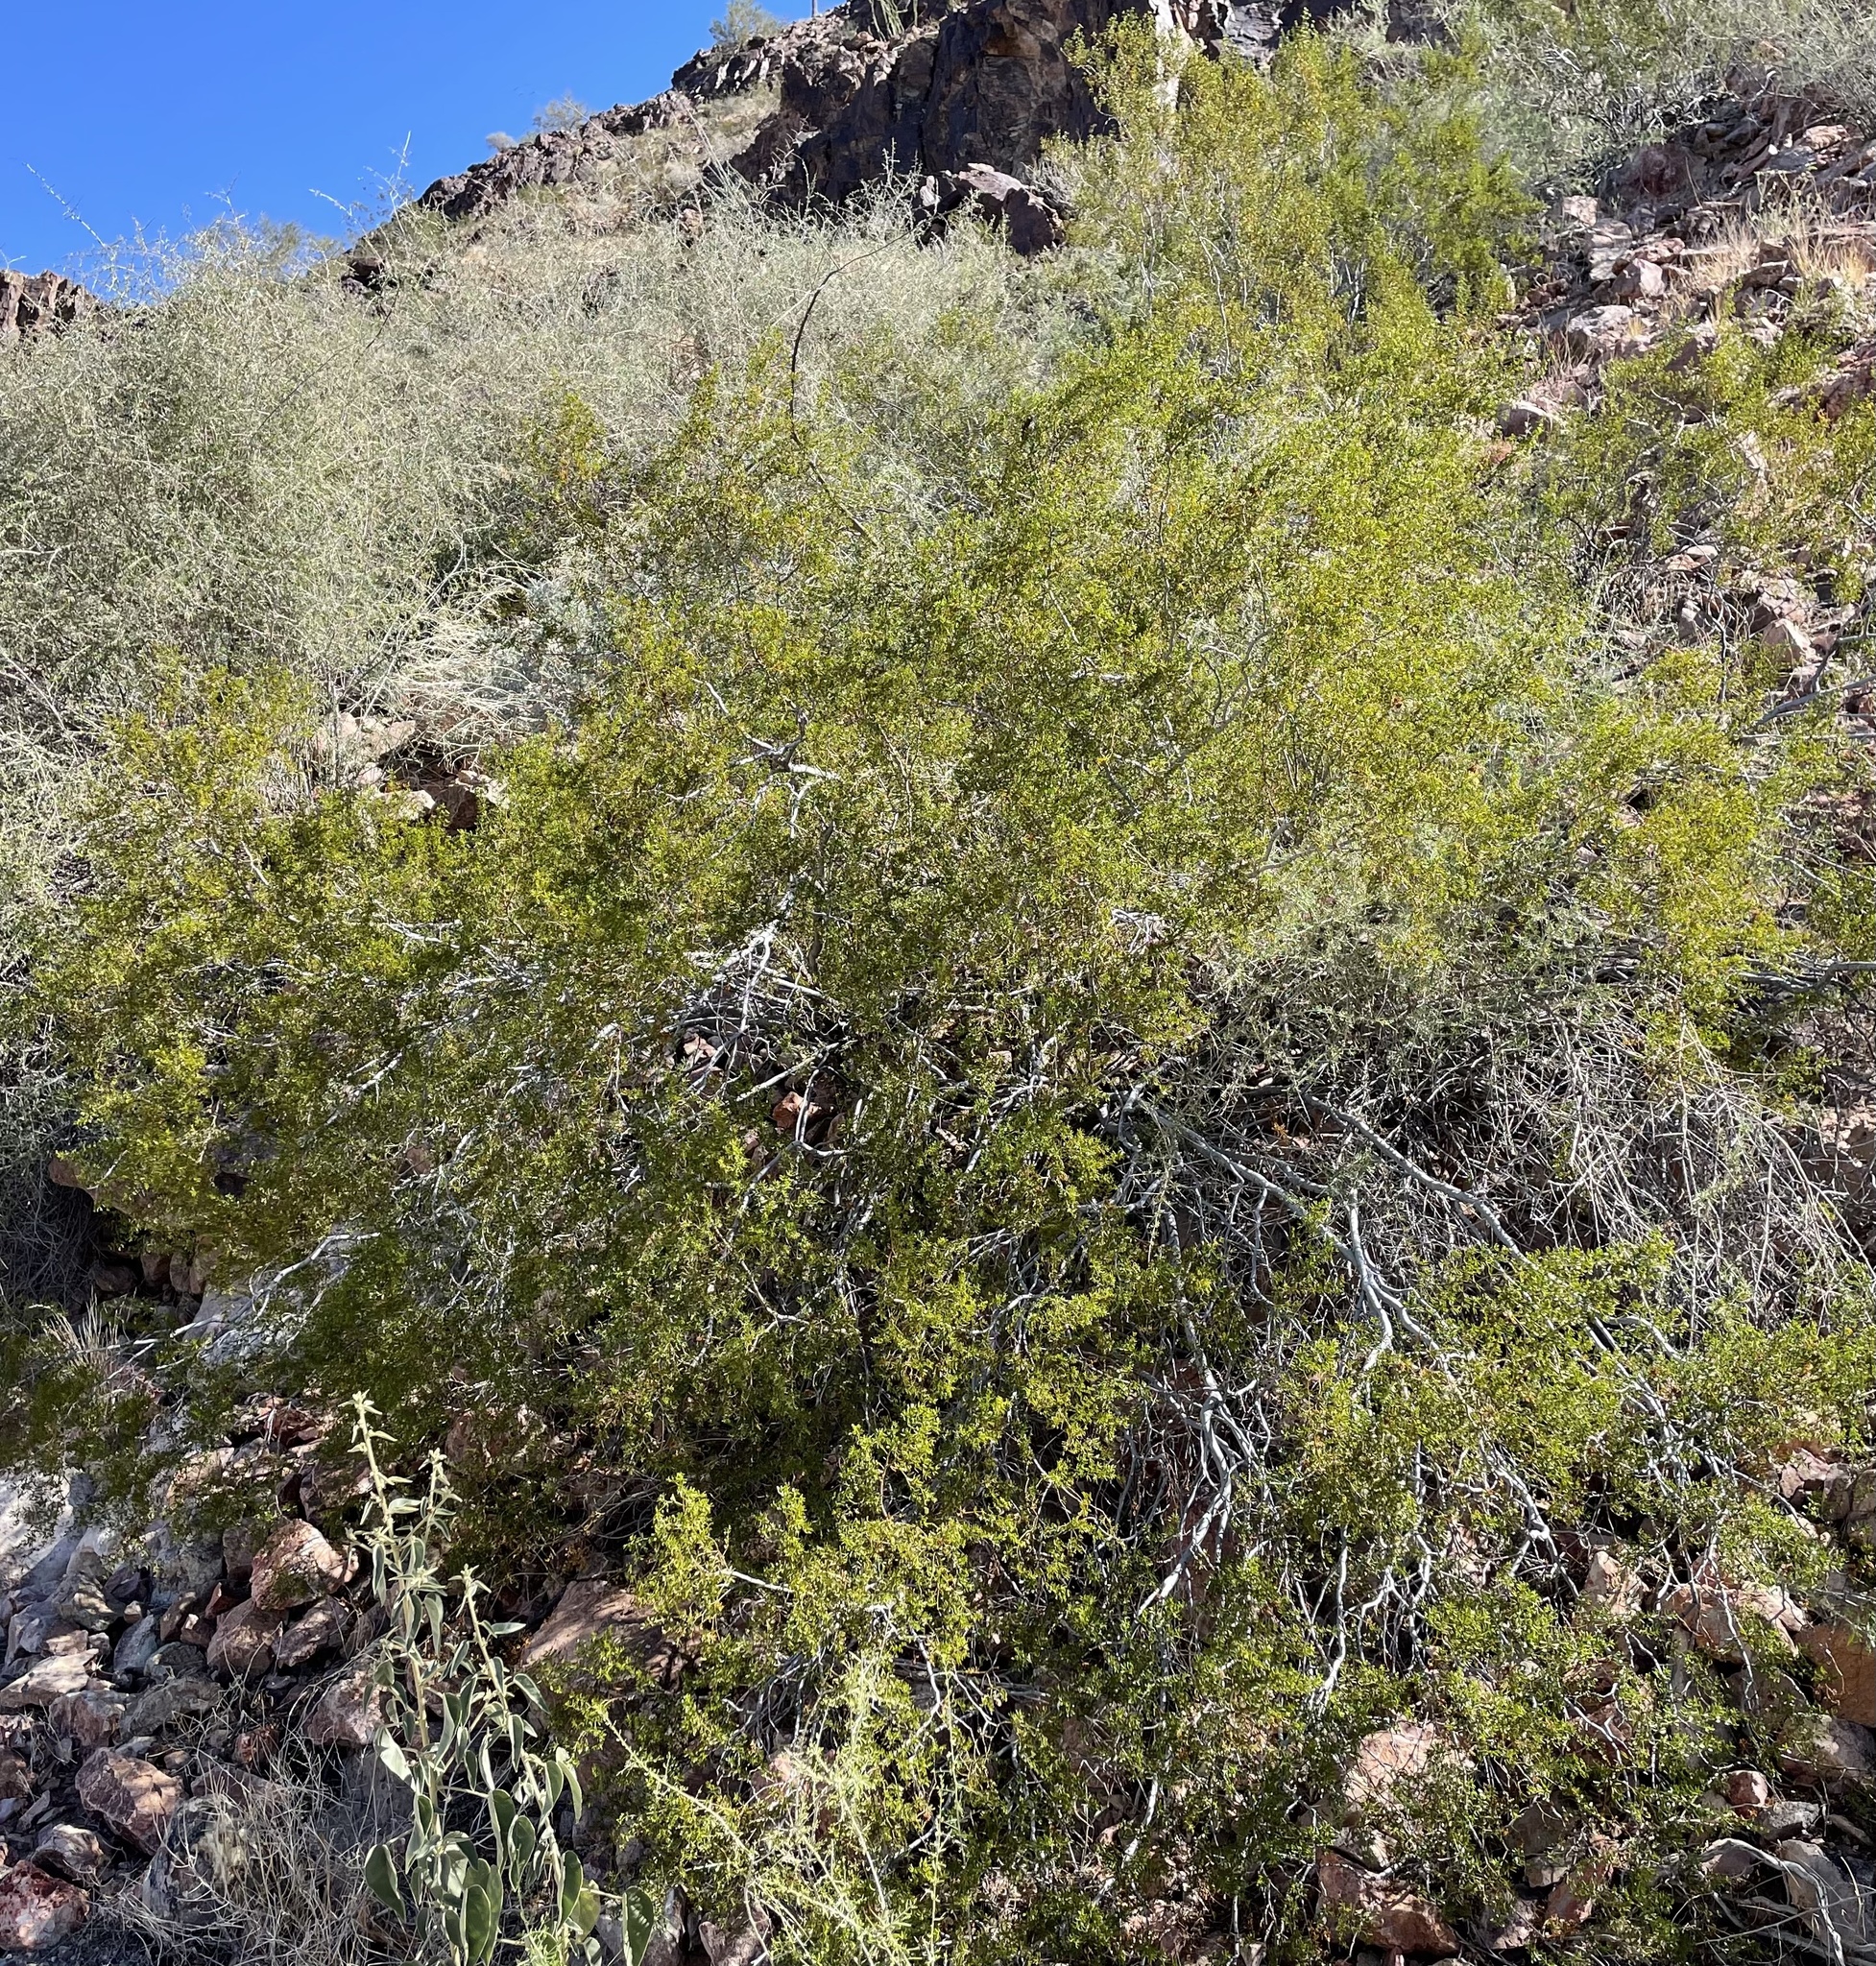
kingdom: Plantae
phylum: Tracheophyta
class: Magnoliopsida
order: Zygophyllales
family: Zygophyllaceae
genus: Larrea
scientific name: Larrea tridentata
